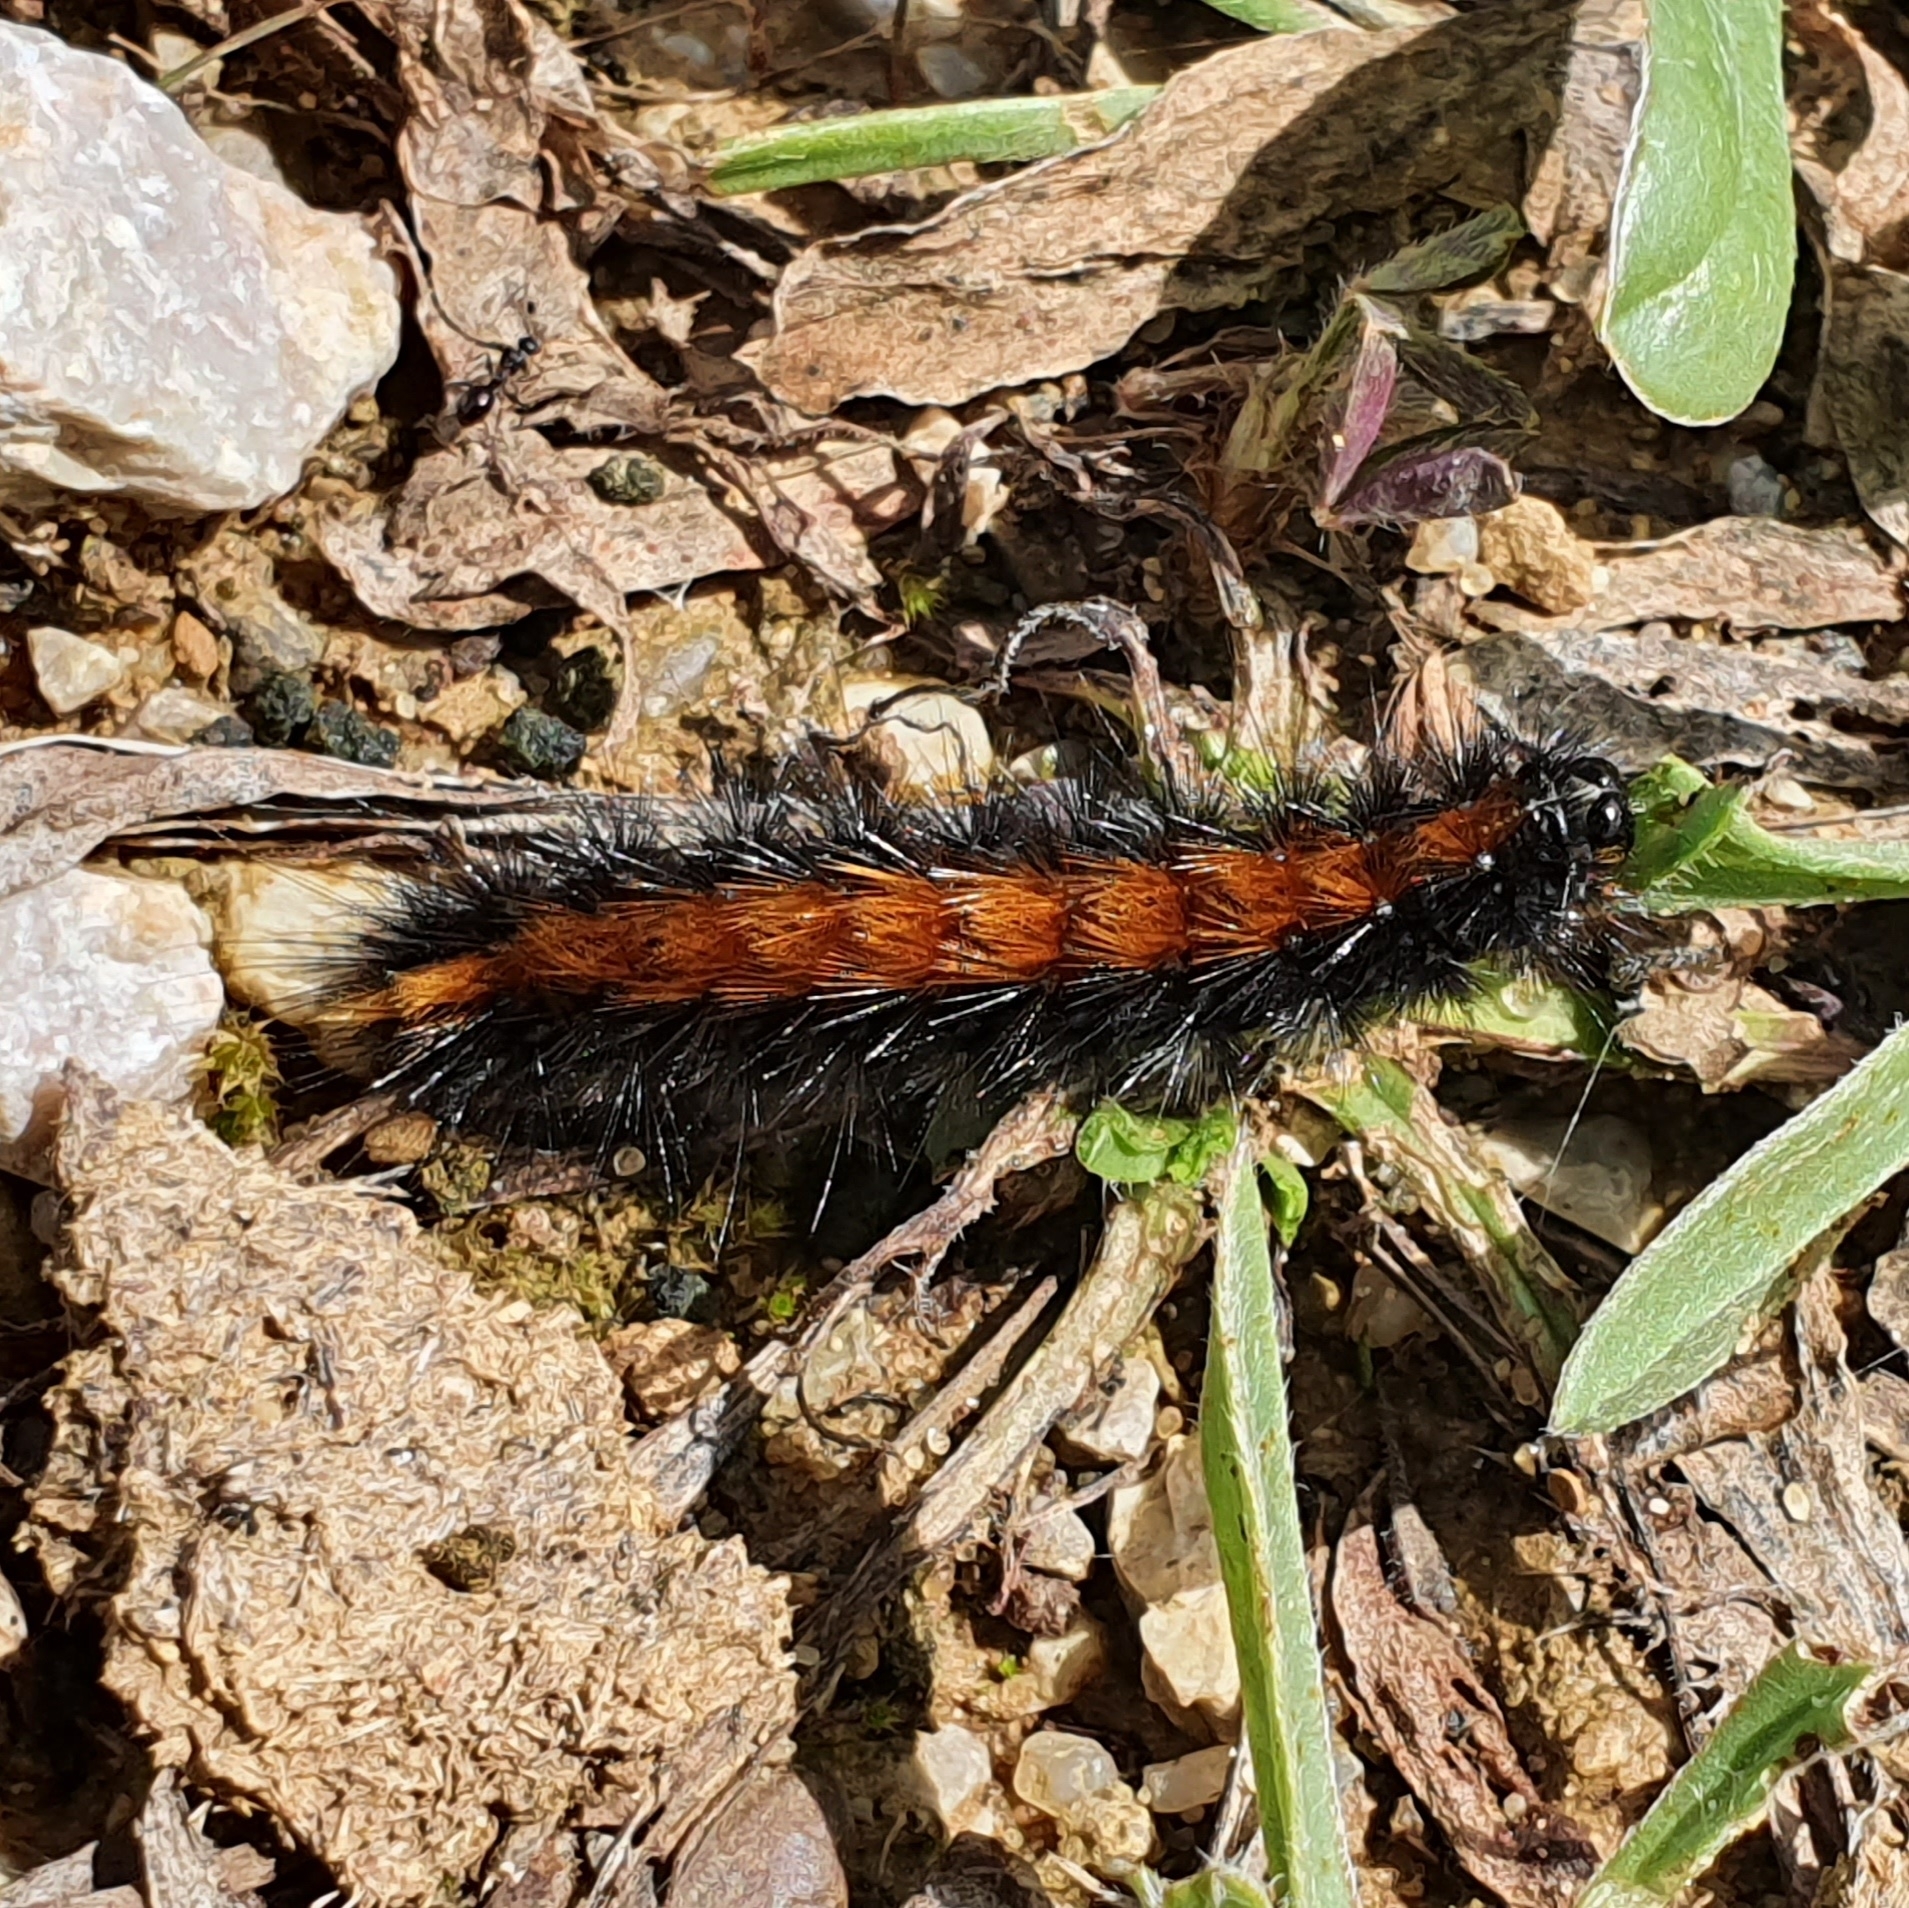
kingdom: Animalia
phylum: Arthropoda
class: Insecta
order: Lepidoptera
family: Erebidae
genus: Ocnogyna
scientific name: Ocnogyna boeticum
